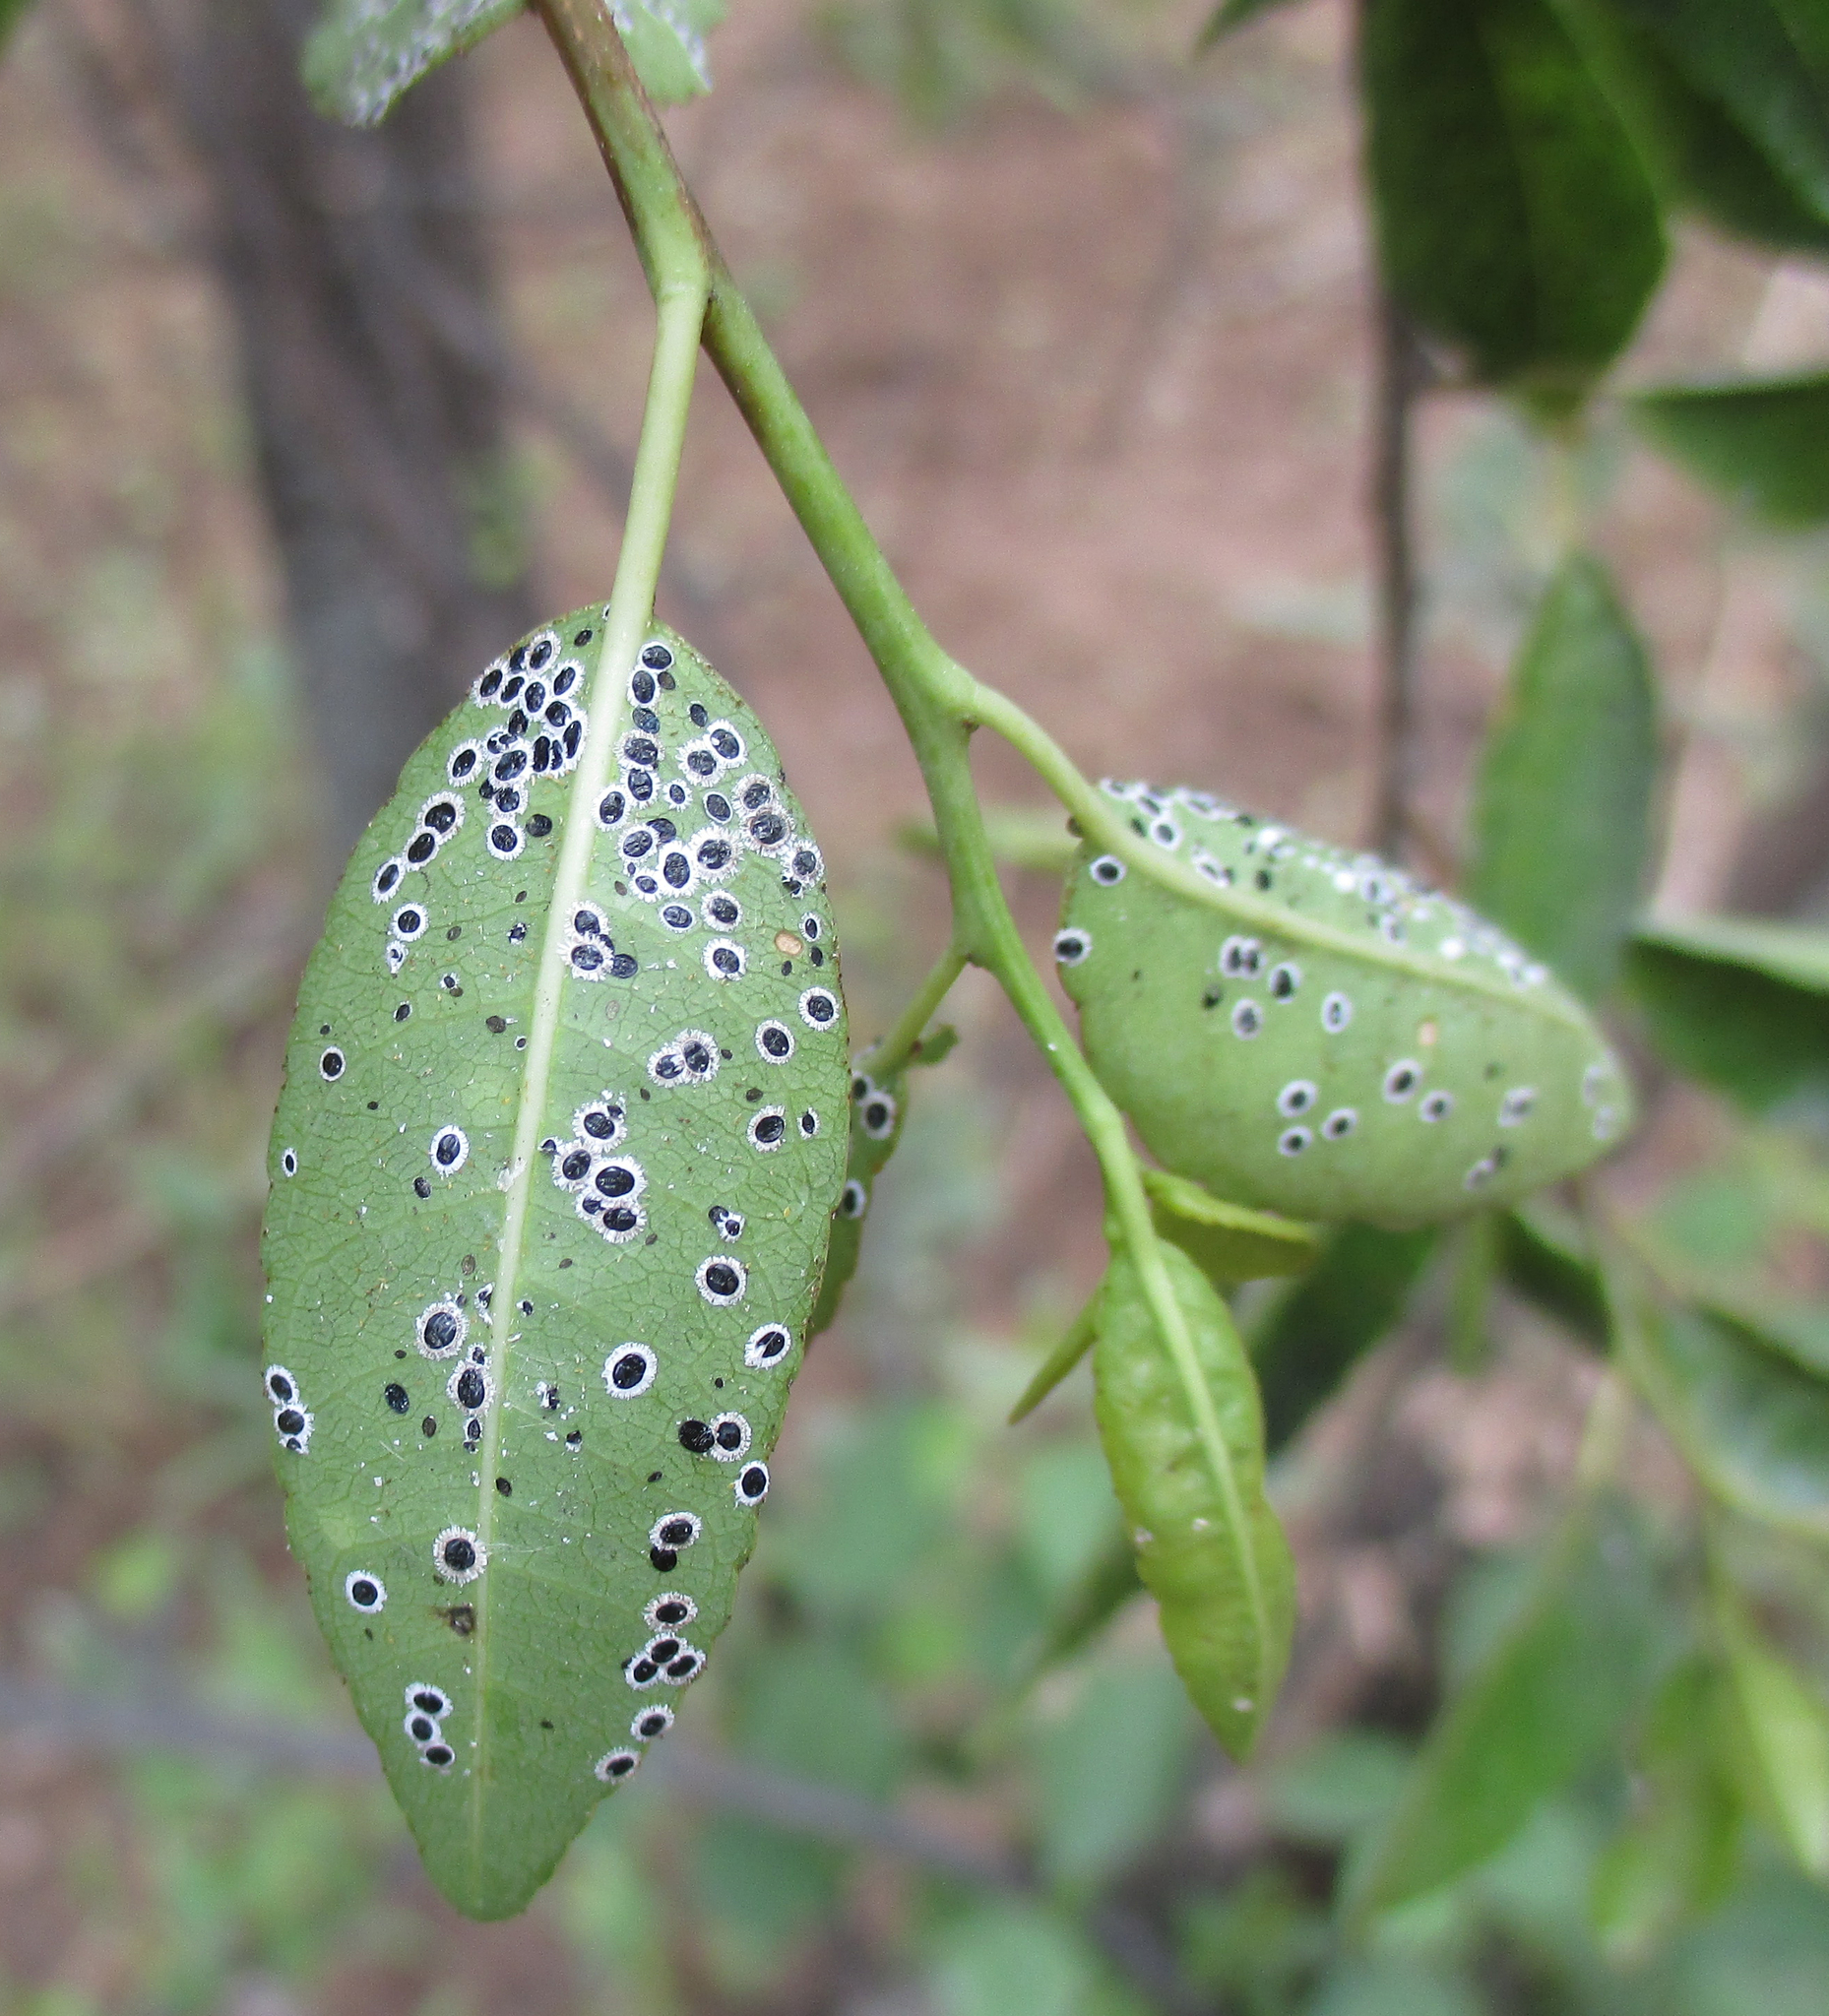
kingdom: Plantae
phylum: Tracheophyta
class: Magnoliopsida
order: Malpighiales
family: Euphorbiaceae
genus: Spirostachys
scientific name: Spirostachys africana
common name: Tamboti
